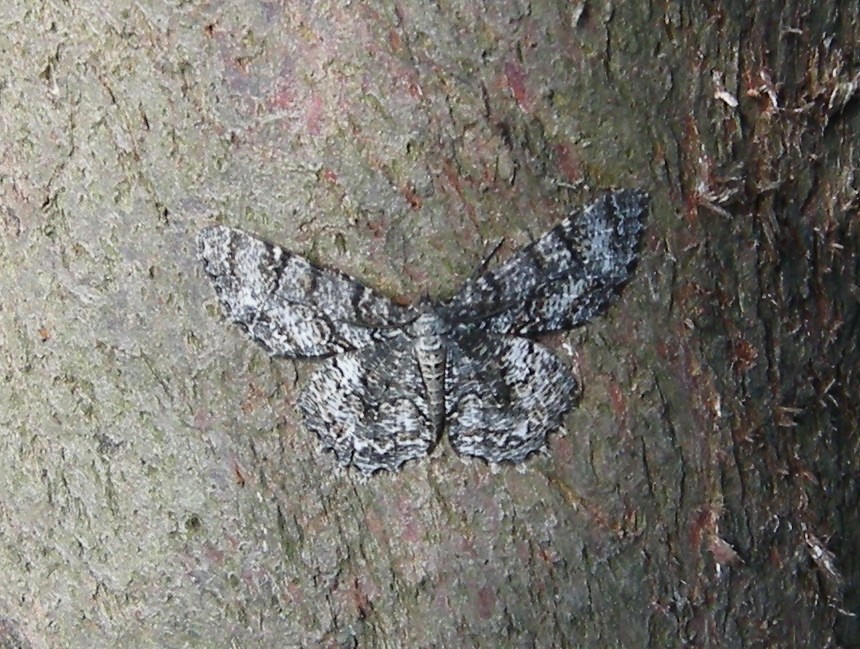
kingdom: Animalia
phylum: Arthropoda
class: Insecta
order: Lepidoptera
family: Geometridae
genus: Epimecis
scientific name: Epimecis hortaria
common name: Tulip-tree beauty
